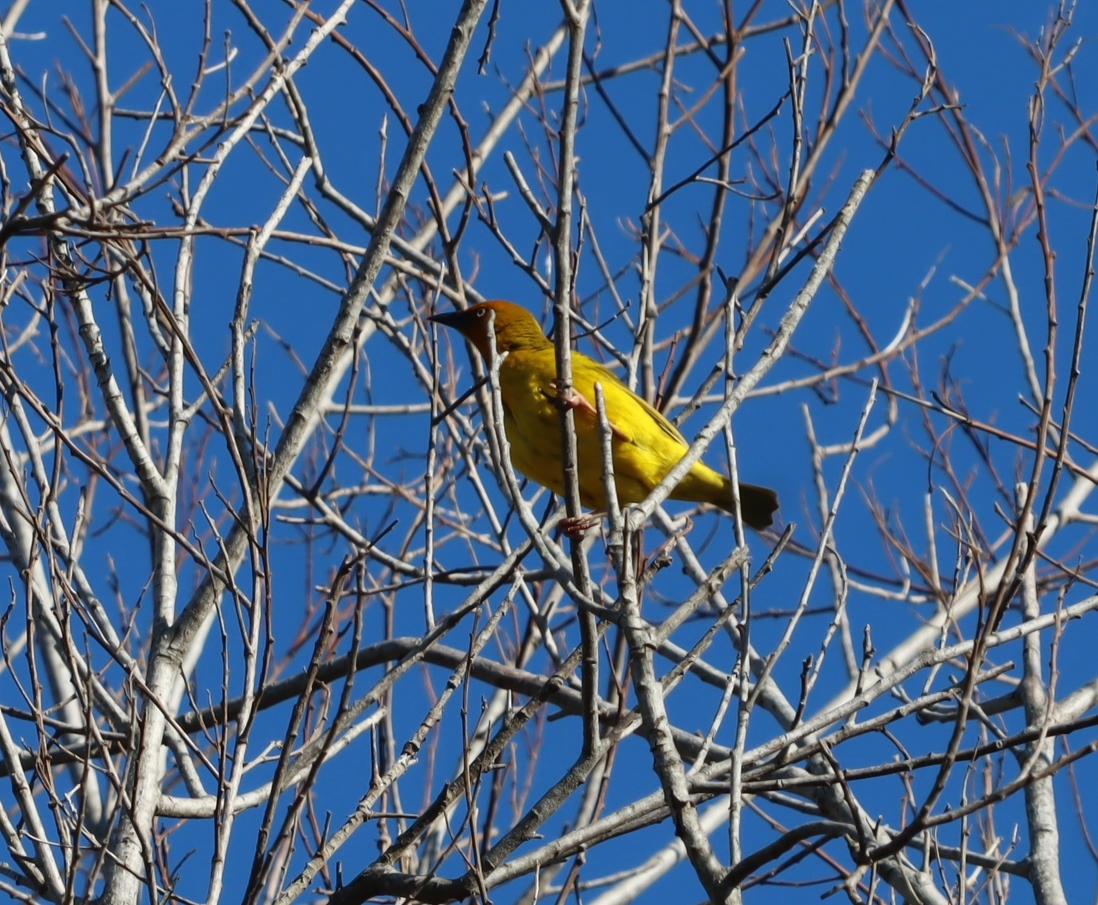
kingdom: Animalia
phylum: Chordata
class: Aves
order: Passeriformes
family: Ploceidae
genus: Ploceus
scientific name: Ploceus capensis
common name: Cape weaver
